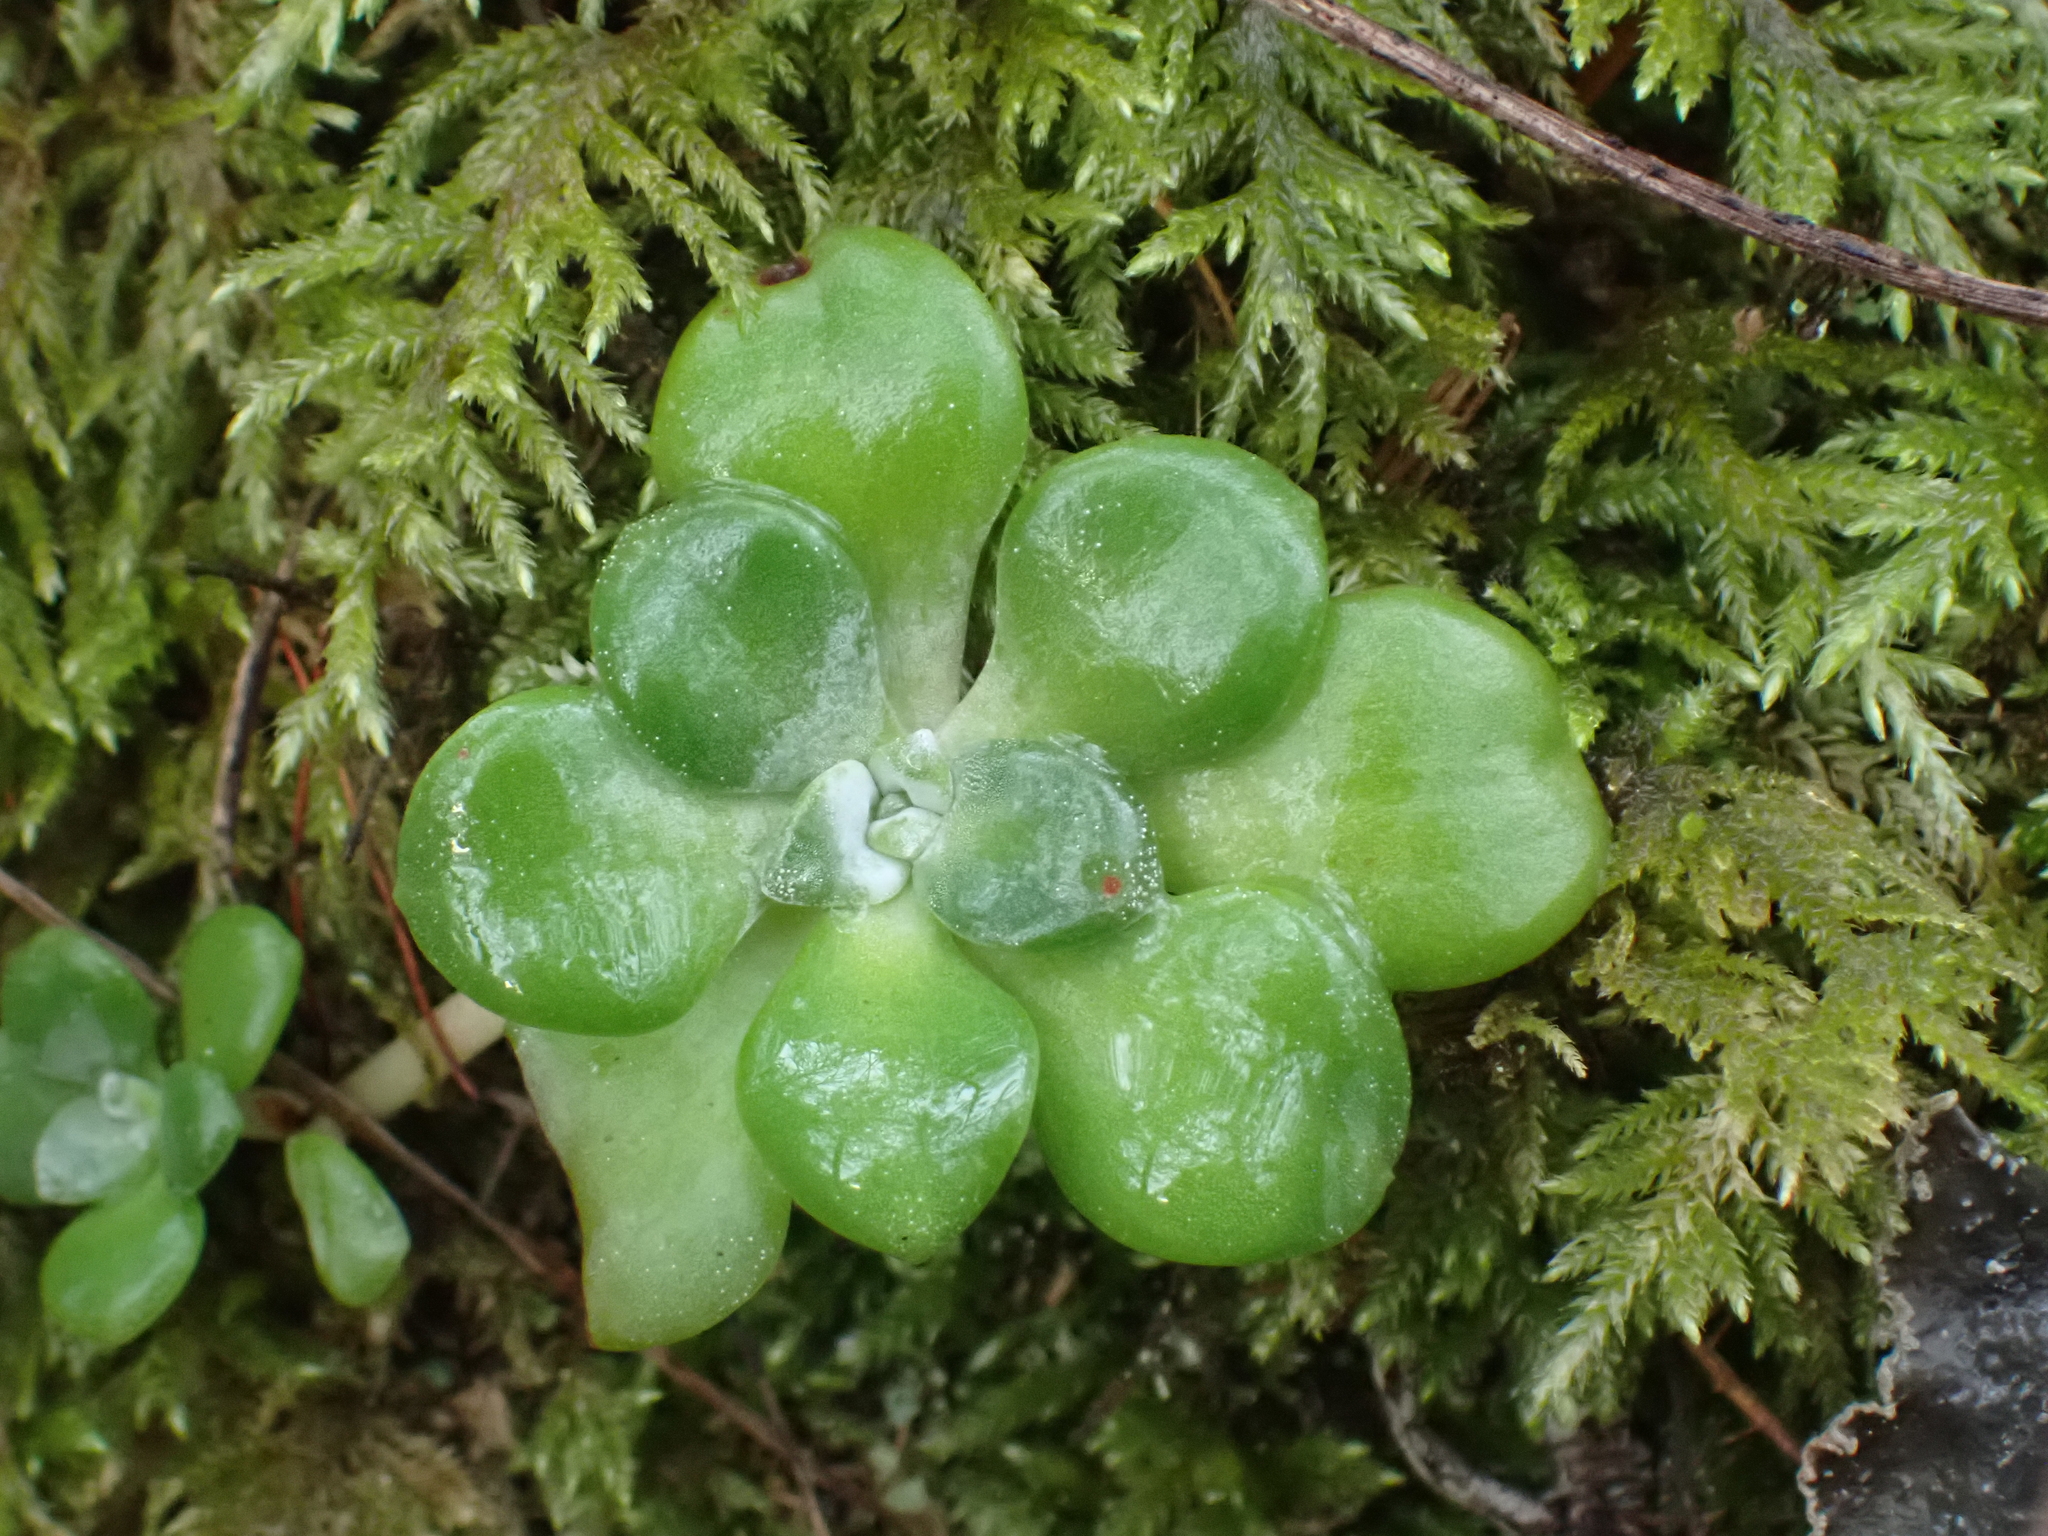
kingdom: Plantae
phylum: Tracheophyta
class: Magnoliopsida
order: Saxifragales
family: Crassulaceae
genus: Sedum
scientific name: Sedum spathulifolium
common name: Colorado stonecrop
